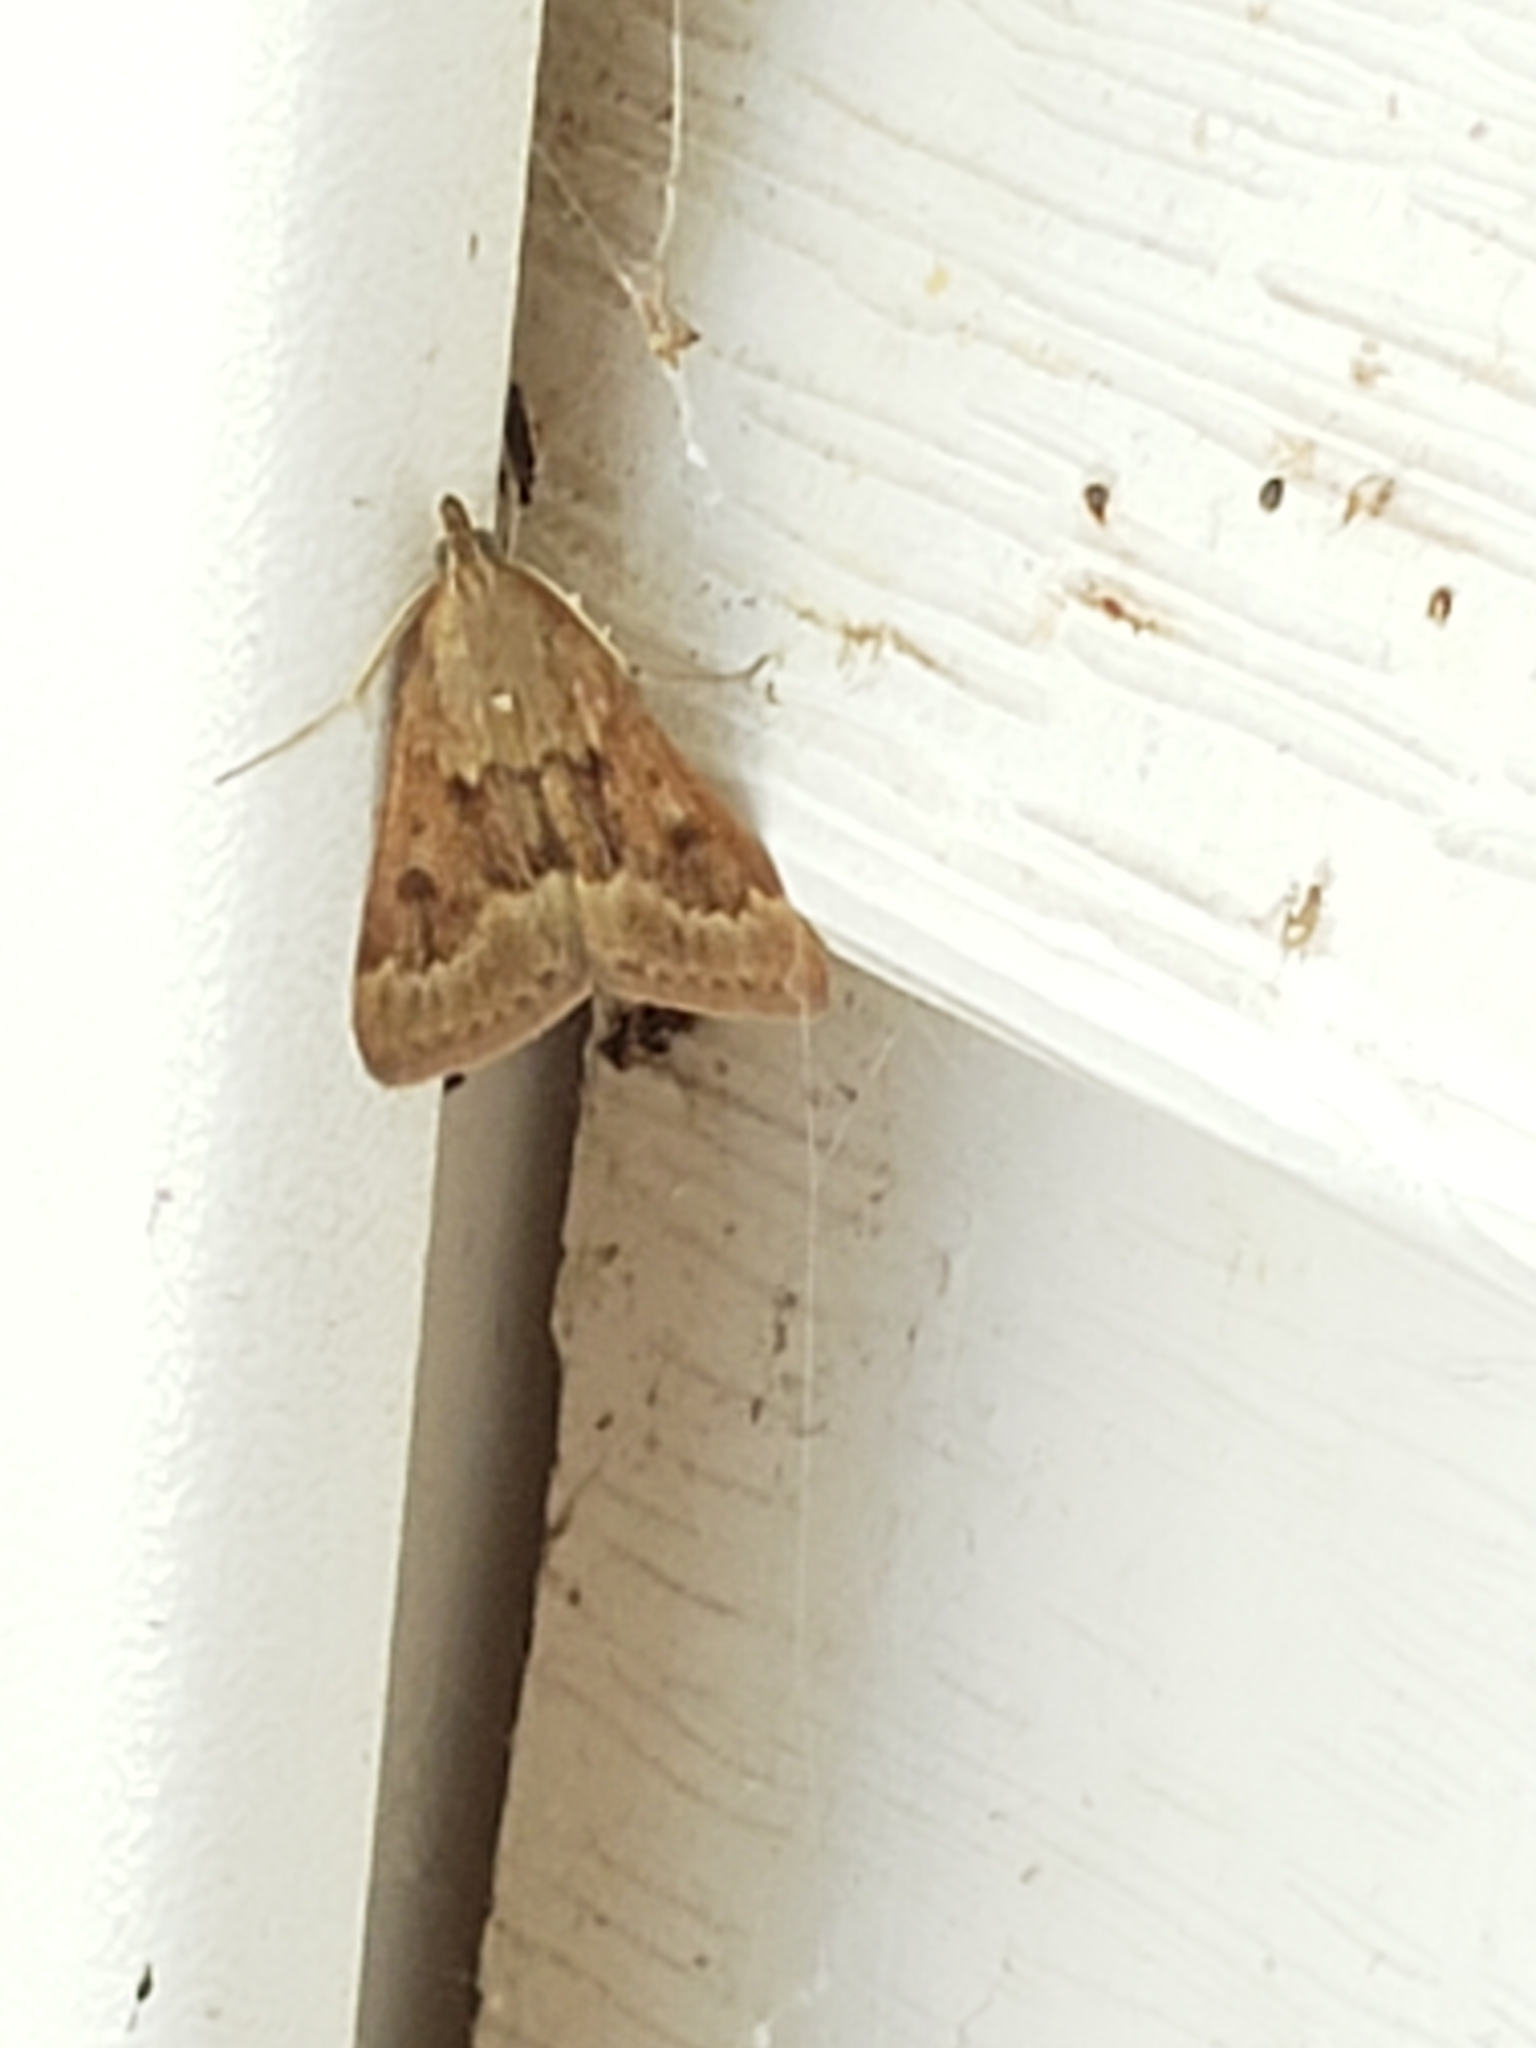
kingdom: Animalia
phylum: Arthropoda
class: Insecta
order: Lepidoptera
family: Crambidae
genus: Achyra
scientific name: Achyra rantalis
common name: Garden webworm
